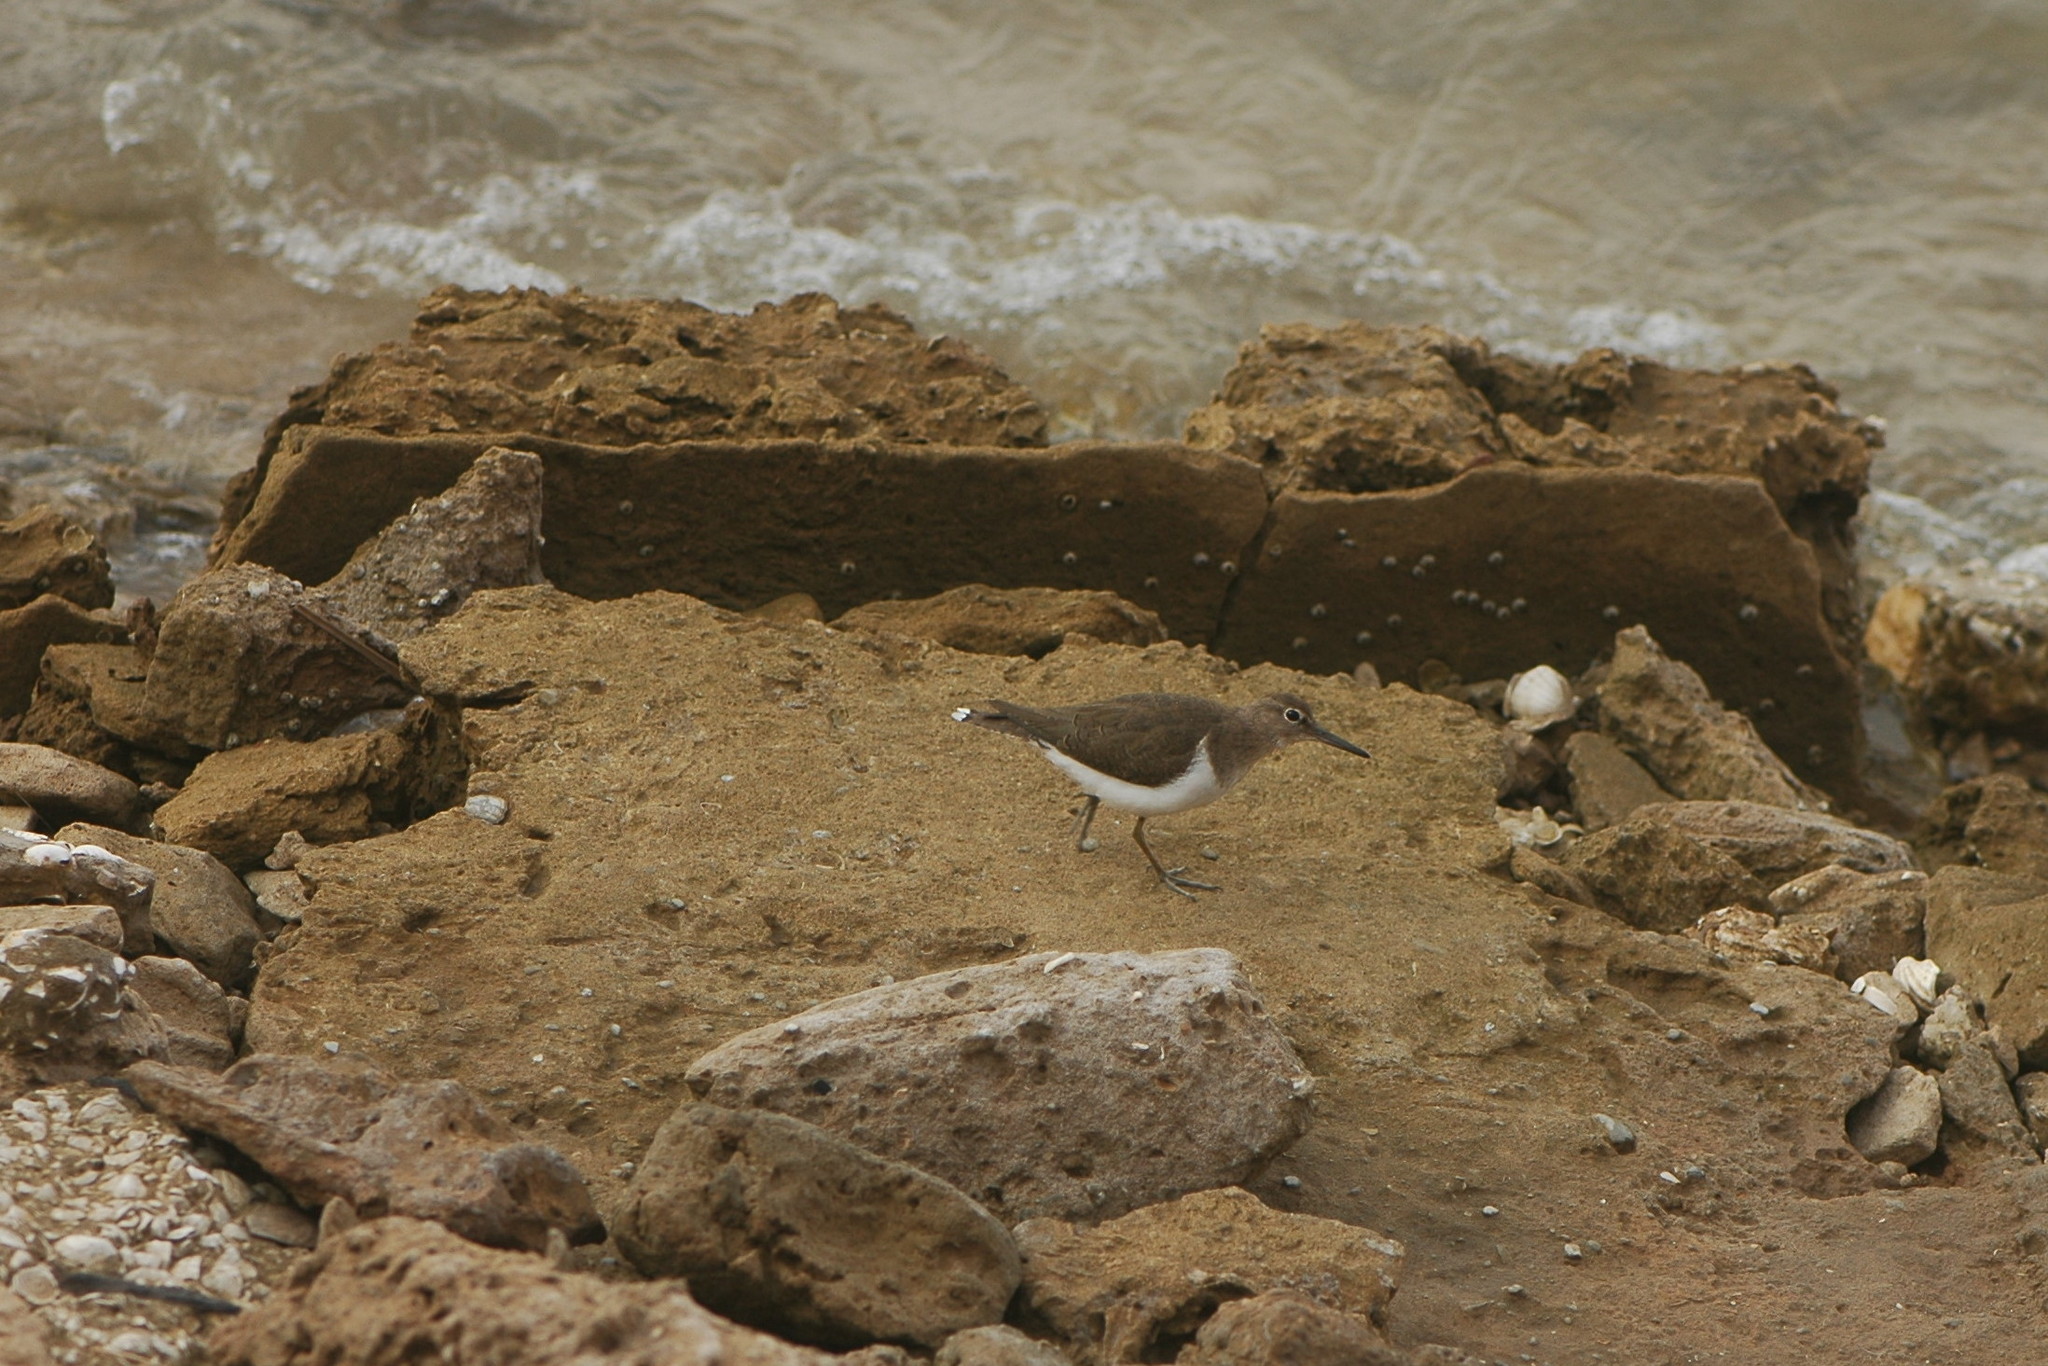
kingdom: Animalia
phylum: Chordata
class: Aves
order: Charadriiformes
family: Scolopacidae
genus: Actitis
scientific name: Actitis hypoleucos
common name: Common sandpiper
